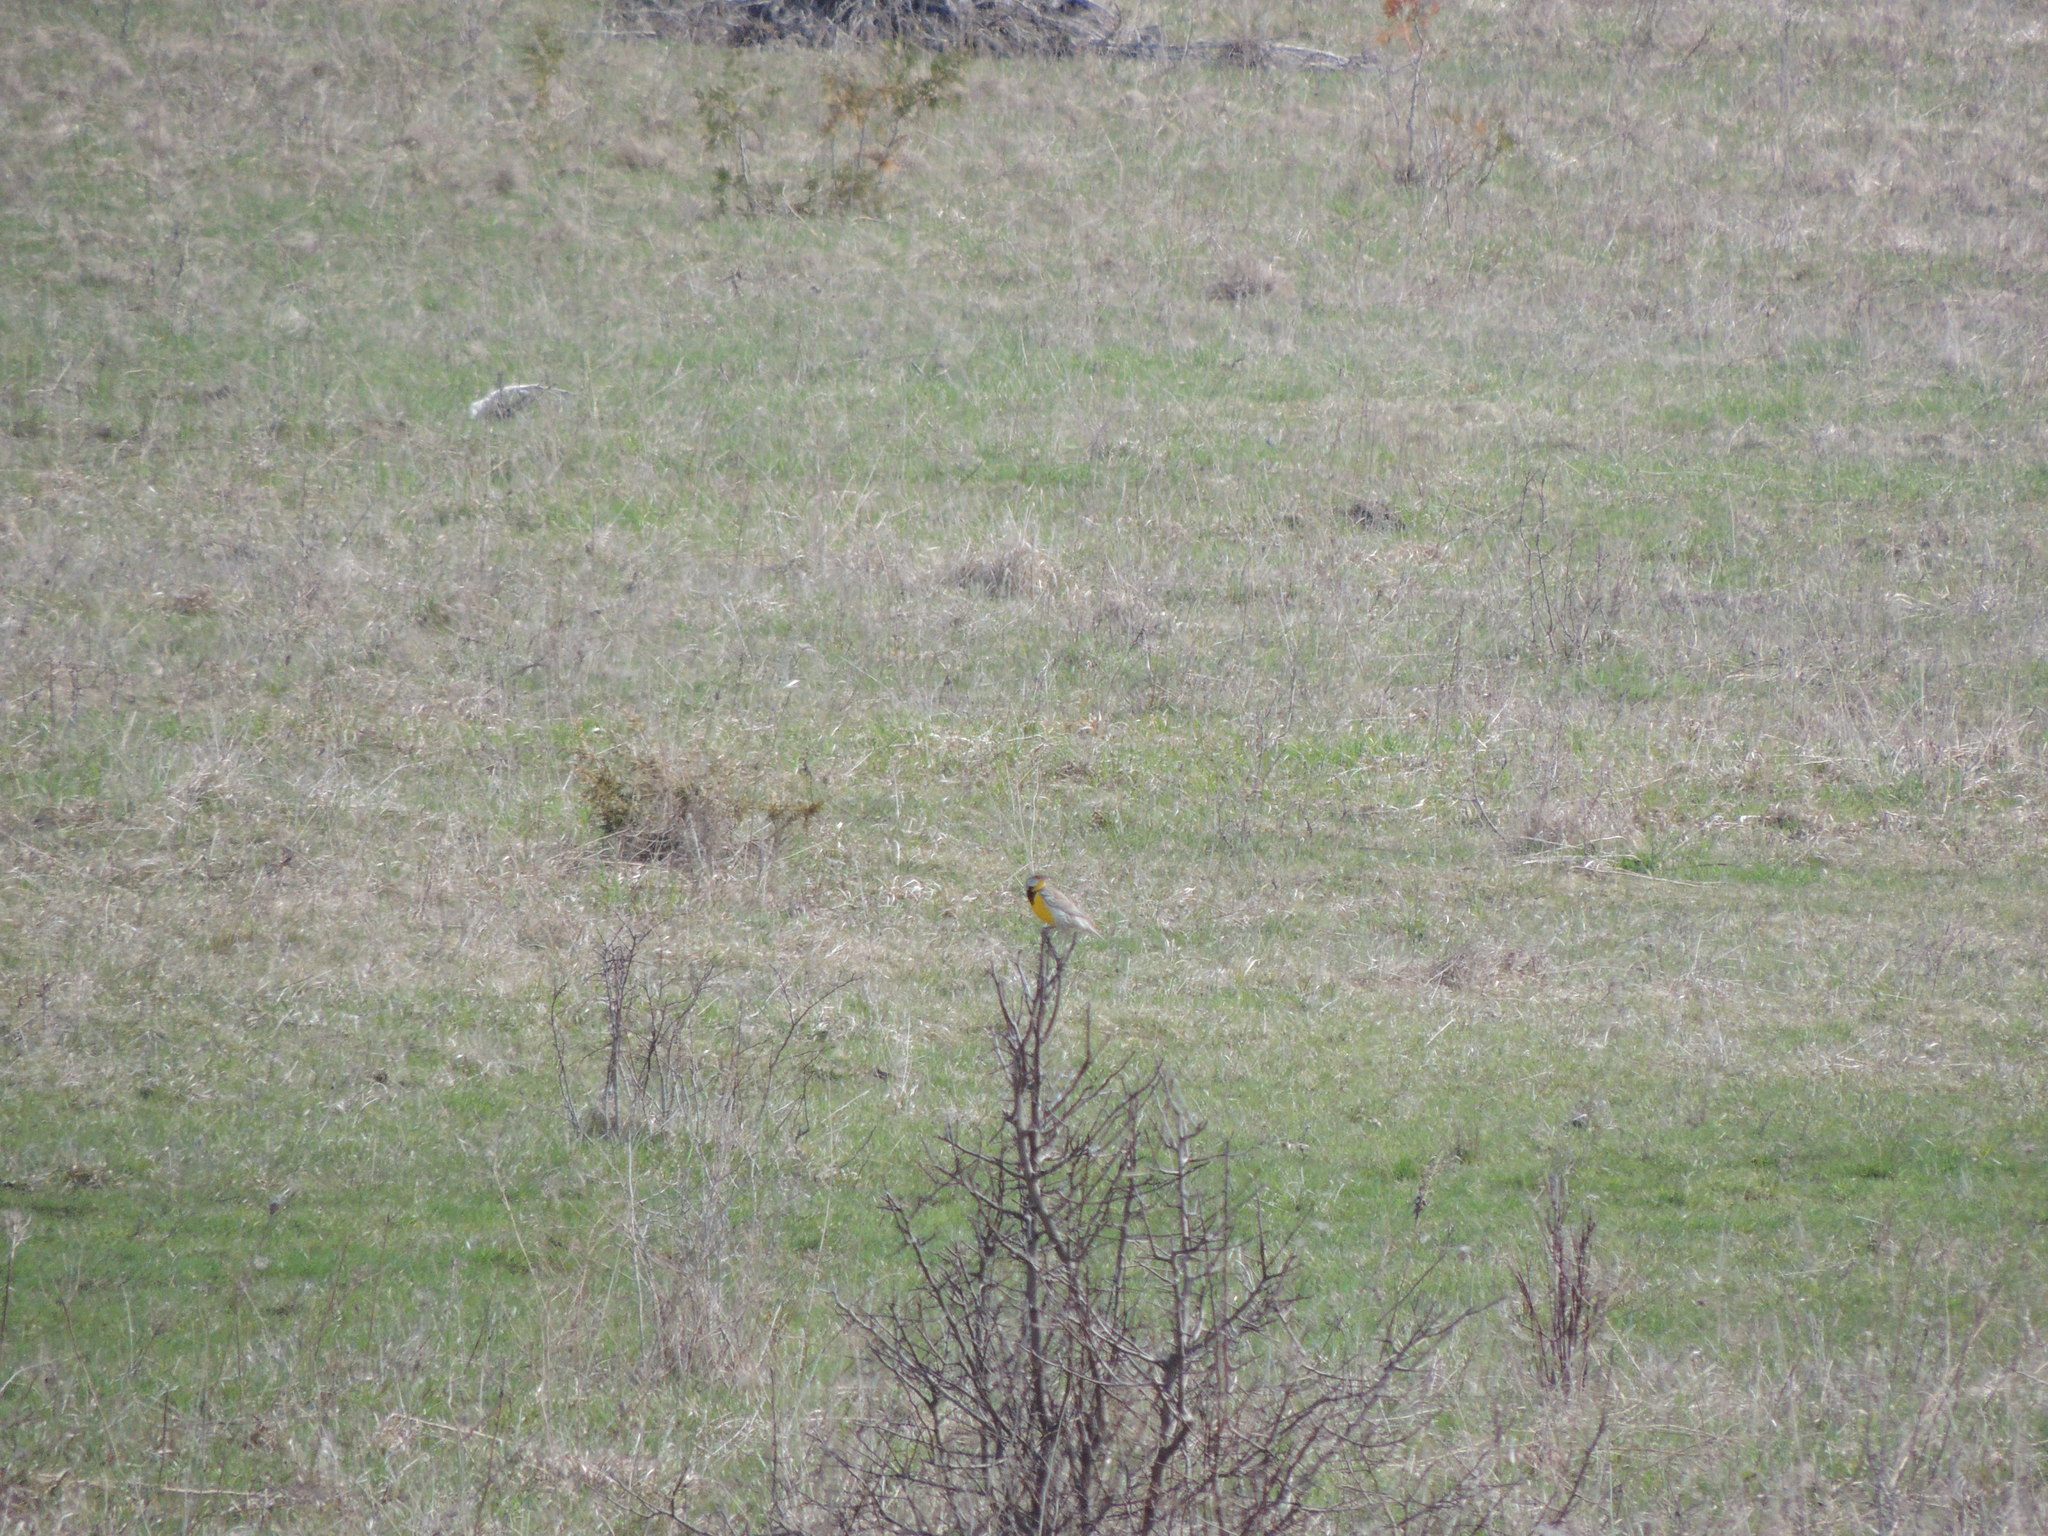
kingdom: Animalia
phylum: Chordata
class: Aves
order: Passeriformes
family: Icteridae
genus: Sturnella
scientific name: Sturnella magna
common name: Eastern meadowlark
